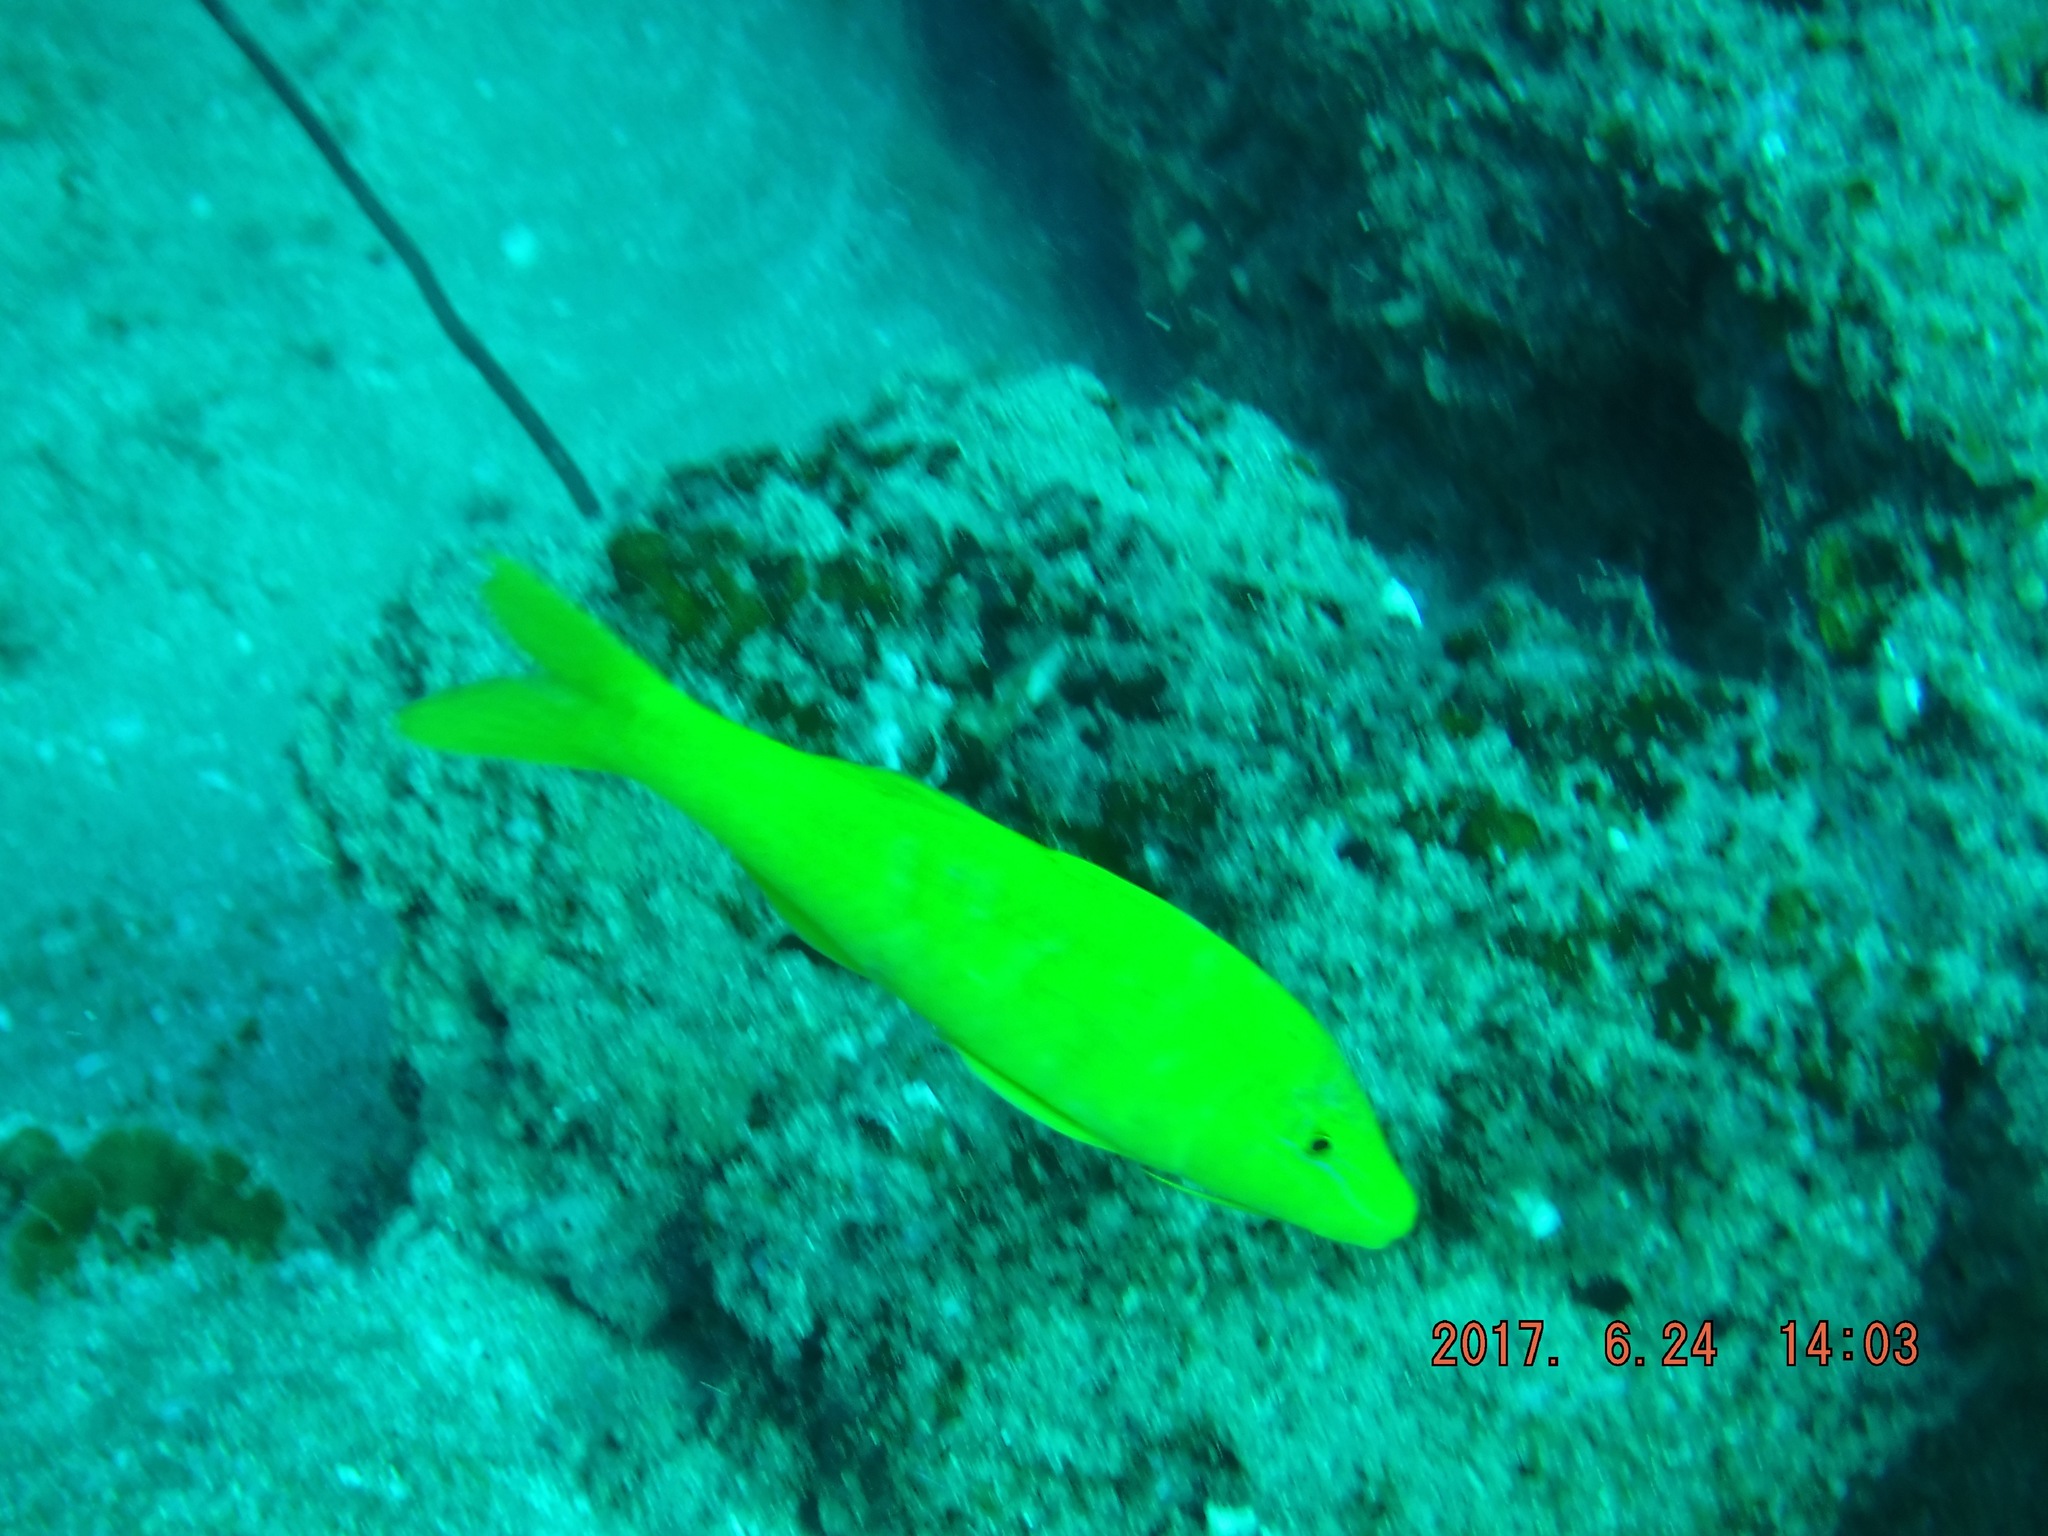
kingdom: Animalia
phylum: Chordata
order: Perciformes
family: Mullidae
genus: Parupeneus
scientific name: Parupeneus cyclostomus
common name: Goldsaddle goatfish
